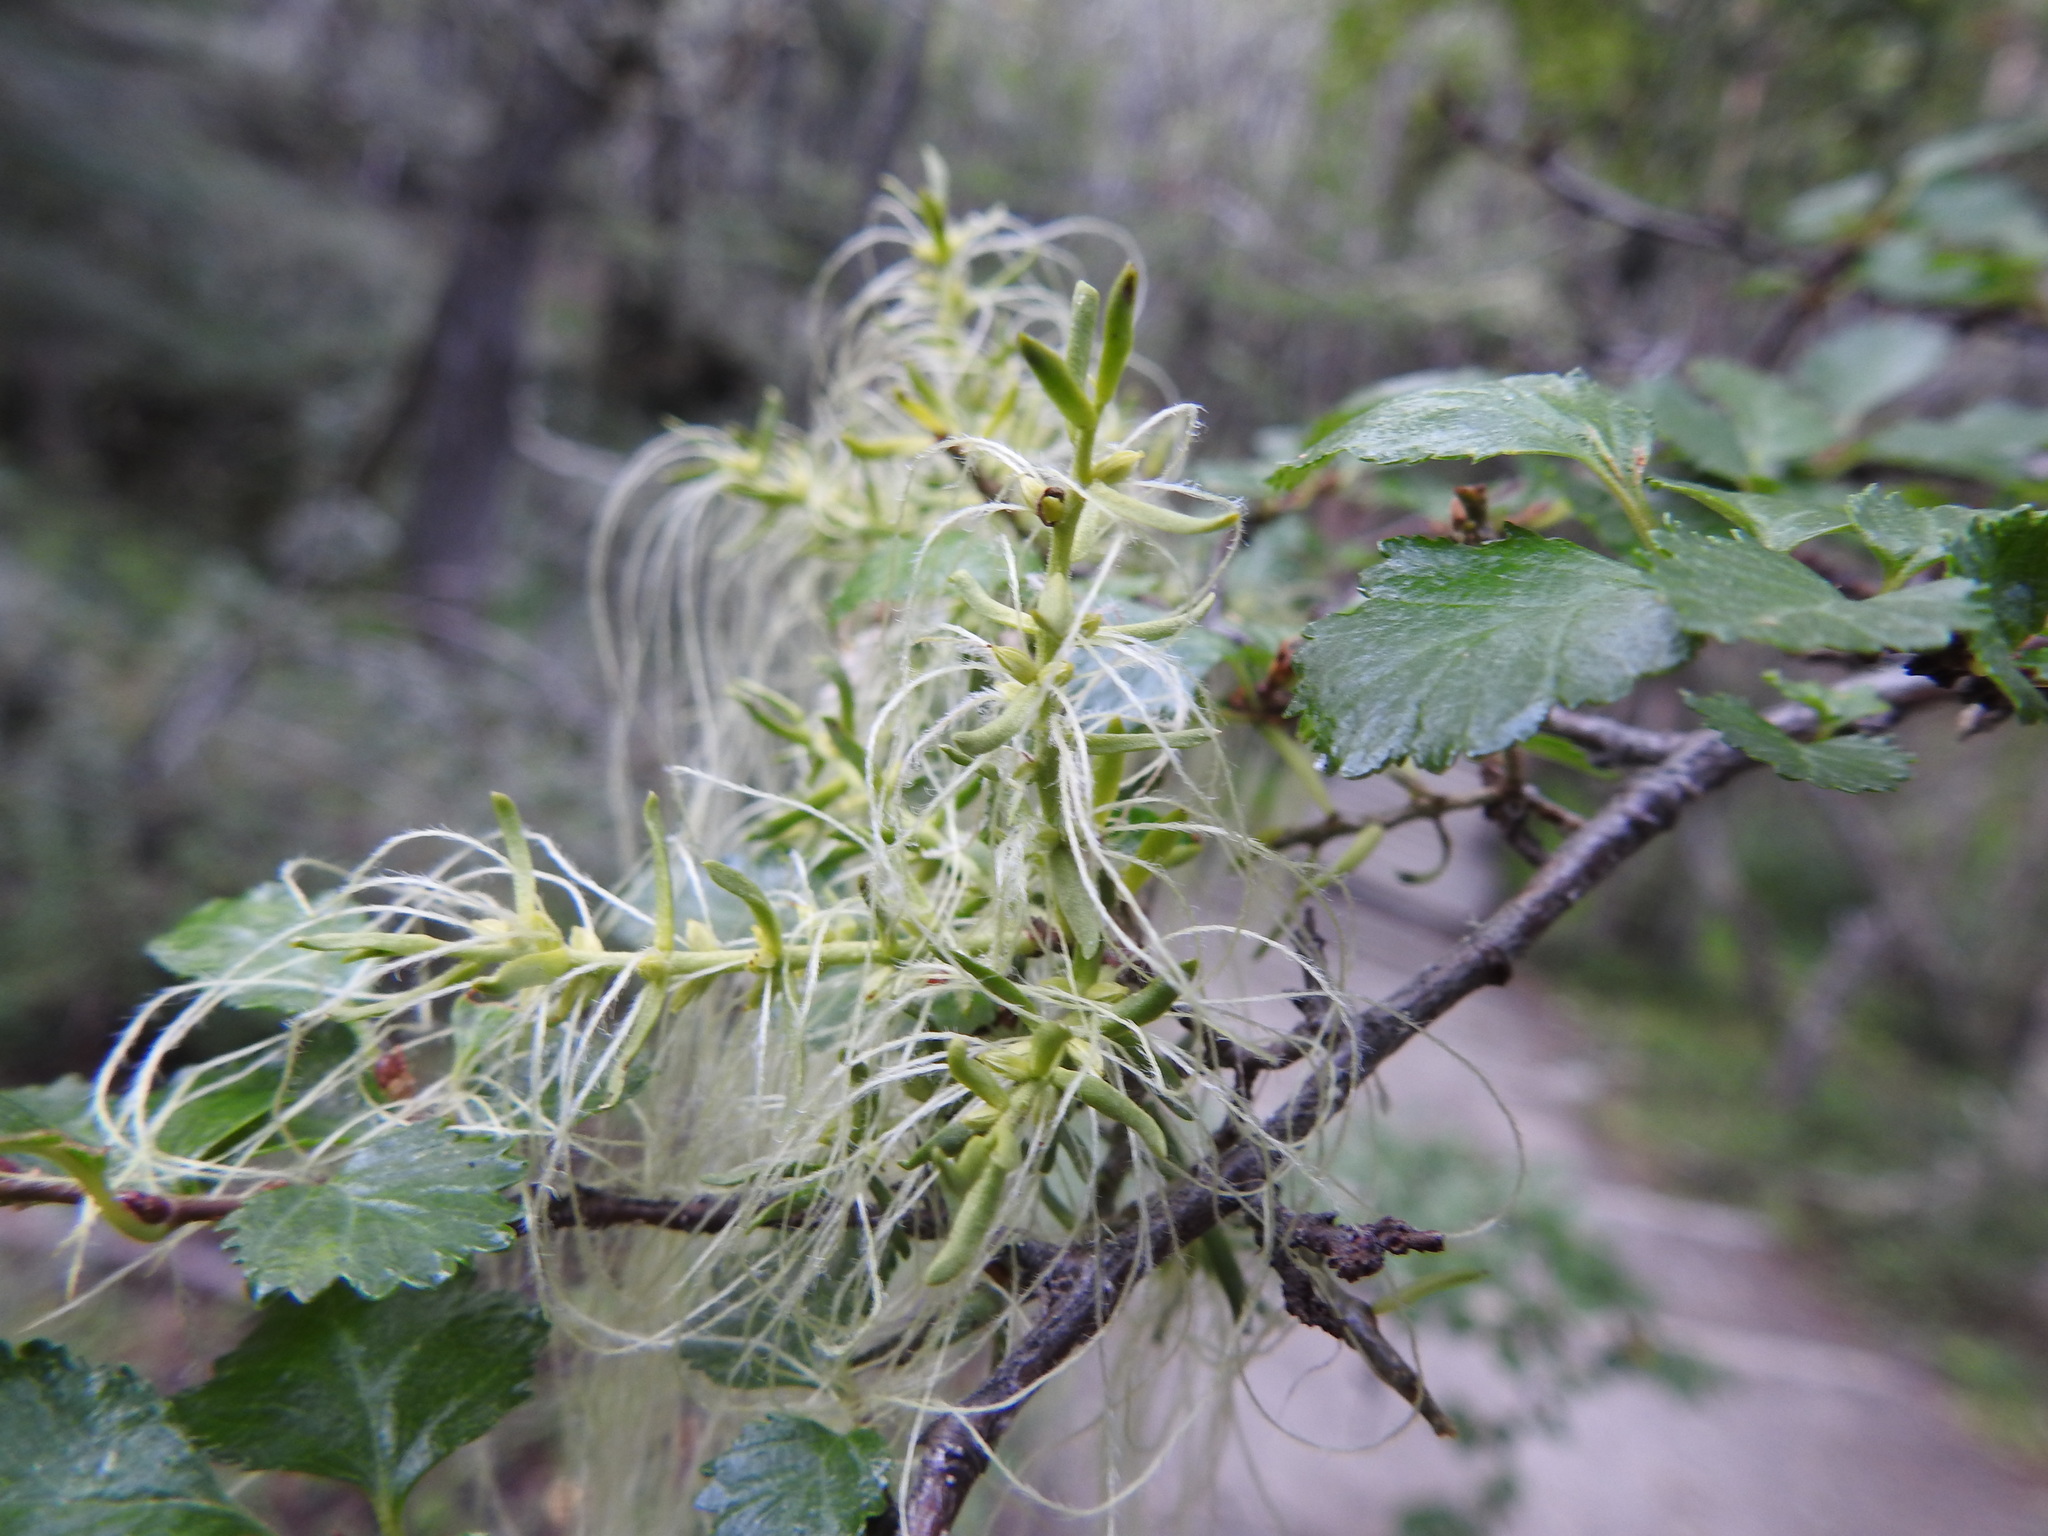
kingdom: Plantae
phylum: Tracheophyta
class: Magnoliopsida
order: Santalales
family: Misodendraceae
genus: Misodendrum
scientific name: Misodendrum linearifolium
